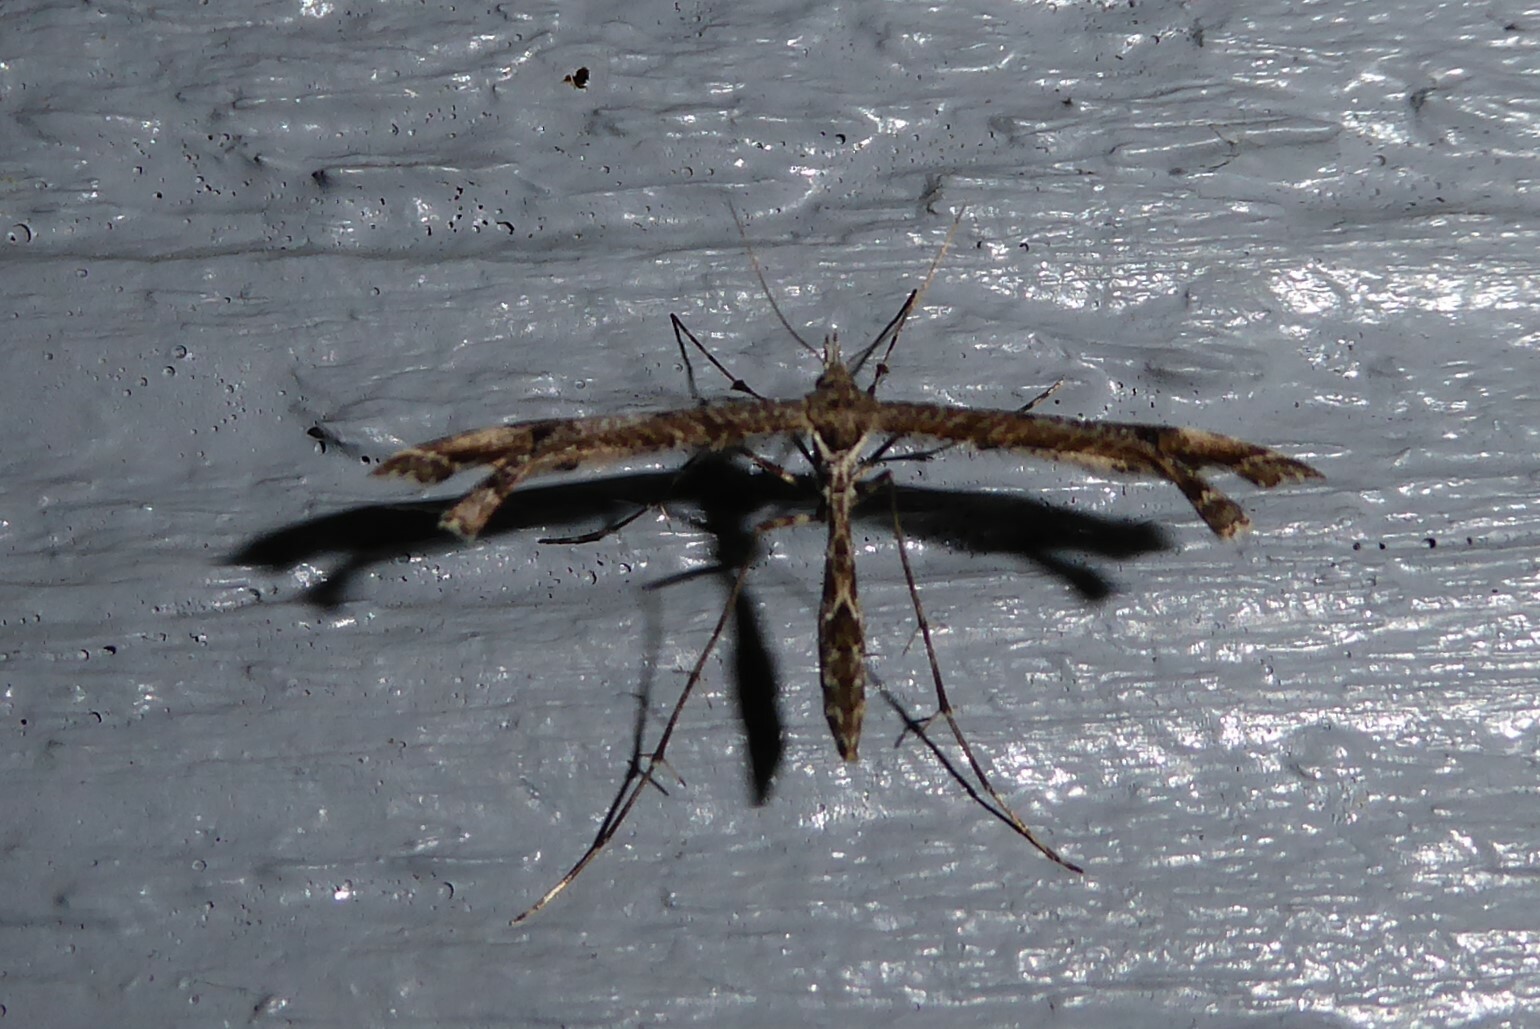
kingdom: Animalia
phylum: Arthropoda
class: Insecta
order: Lepidoptera
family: Pterophoridae
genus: Amblyptilia
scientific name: Amblyptilia repletalis
